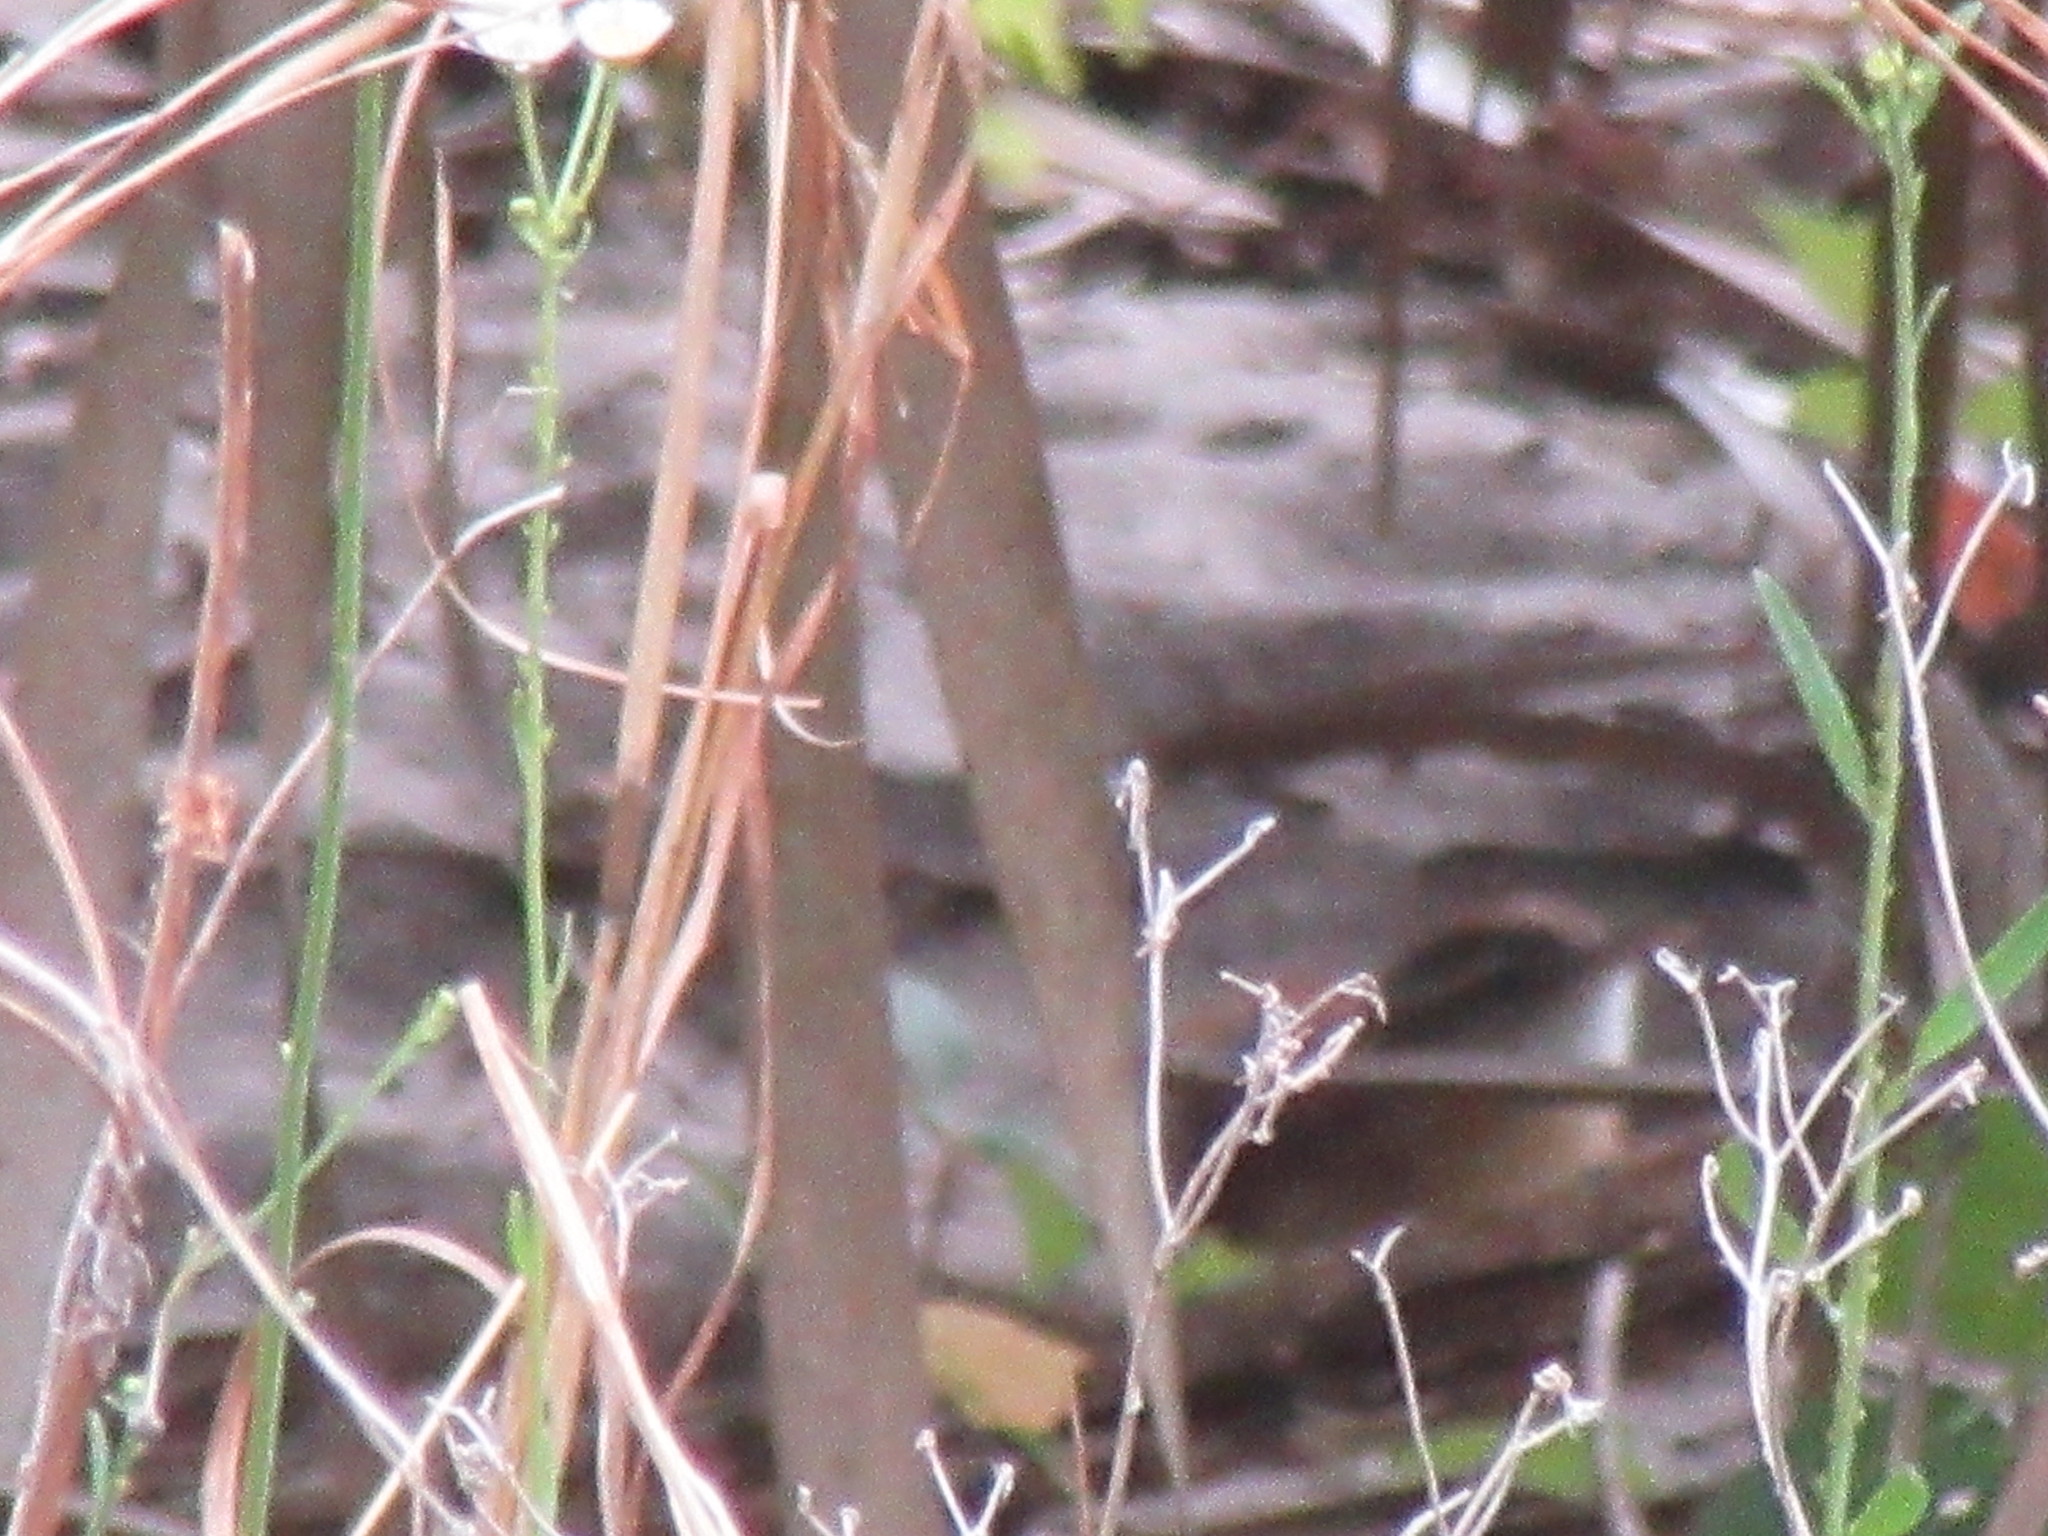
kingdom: Animalia
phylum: Chordata
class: Aves
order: Passeriformes
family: Troglodytidae
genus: Thryothorus
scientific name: Thryothorus ludovicianus
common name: Carolina wren
